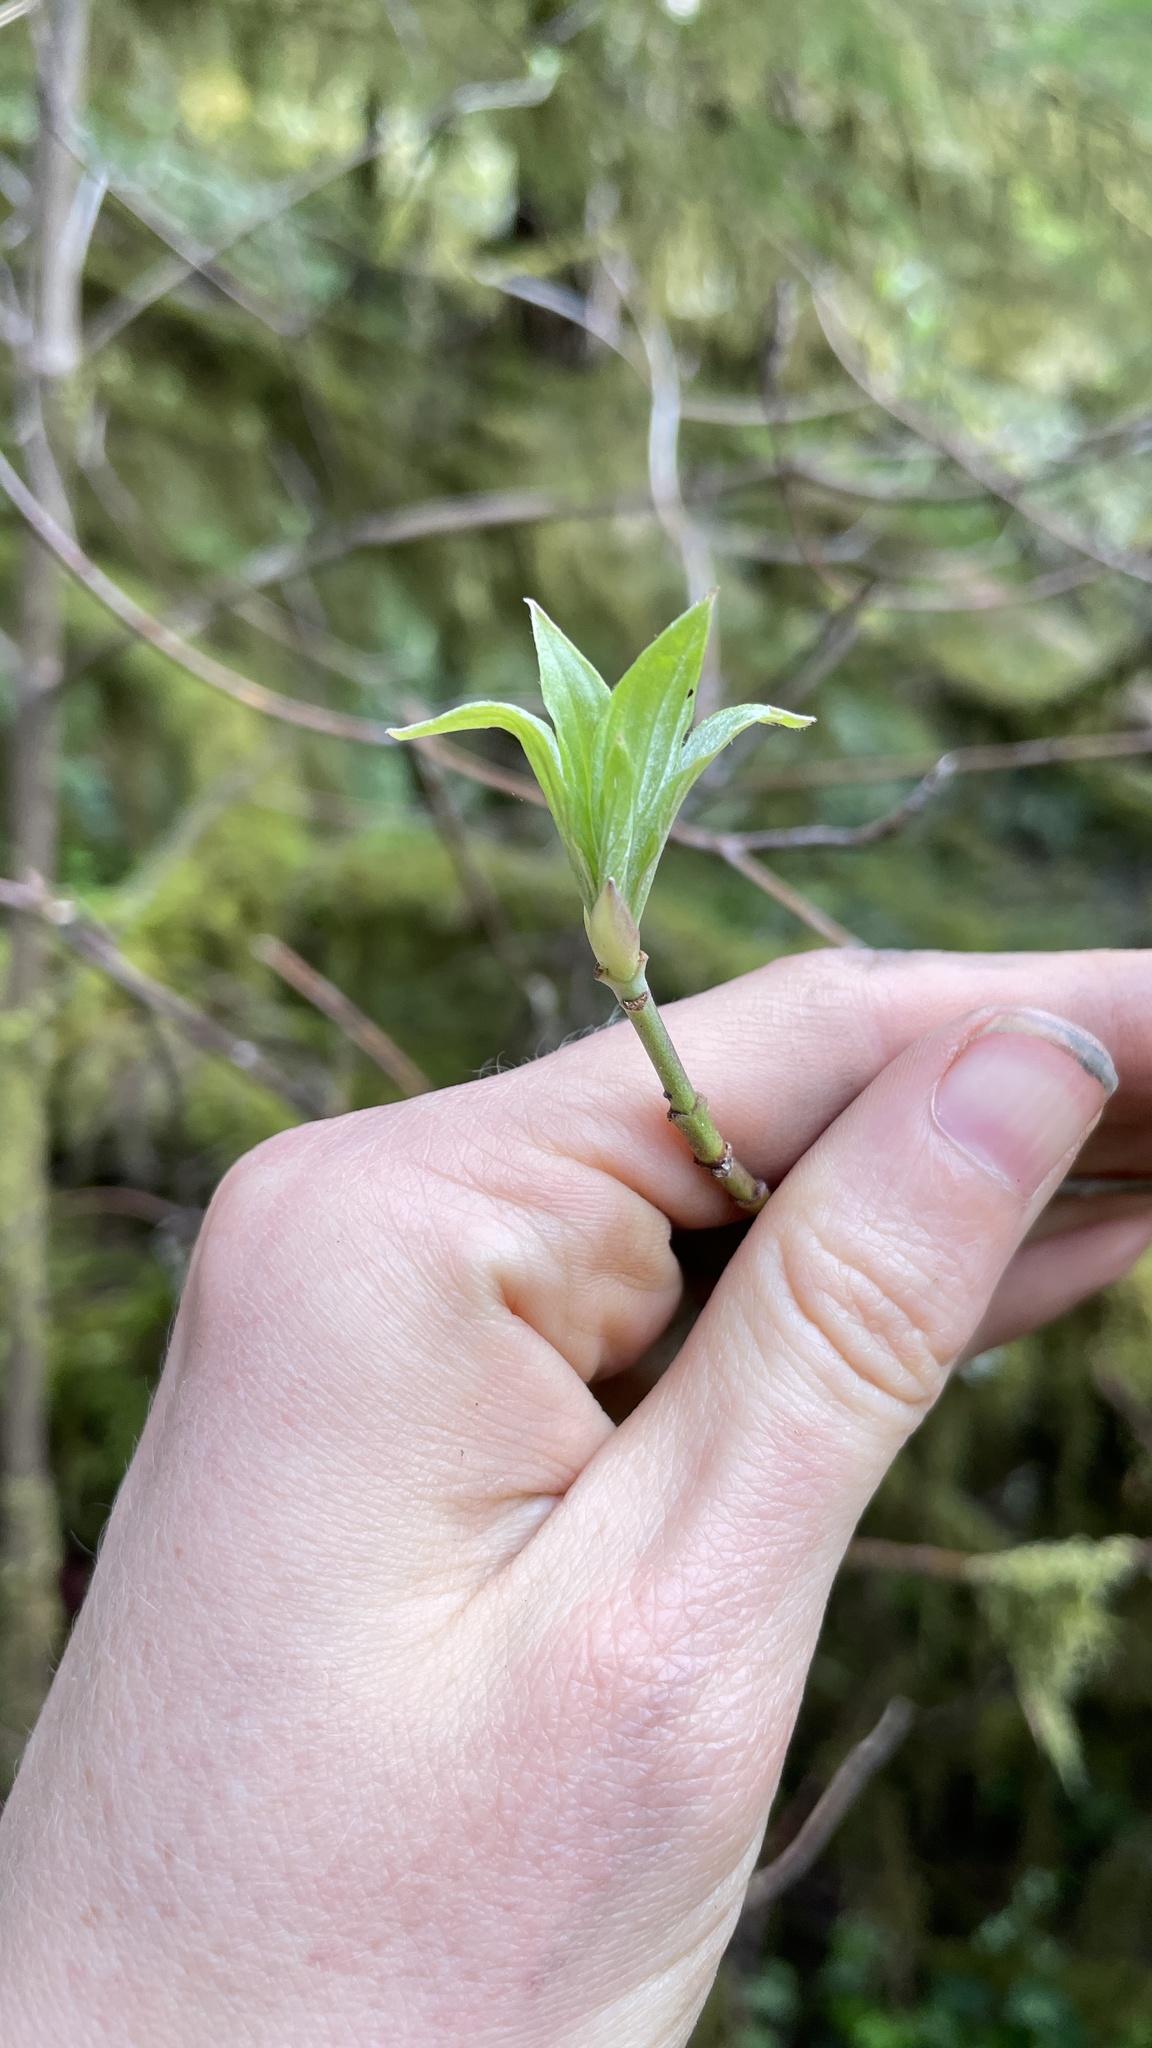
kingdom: Plantae
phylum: Tracheophyta
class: Magnoliopsida
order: Cornales
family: Cornaceae
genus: Cornus
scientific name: Cornus nuttallii
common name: Pacific dogwood
